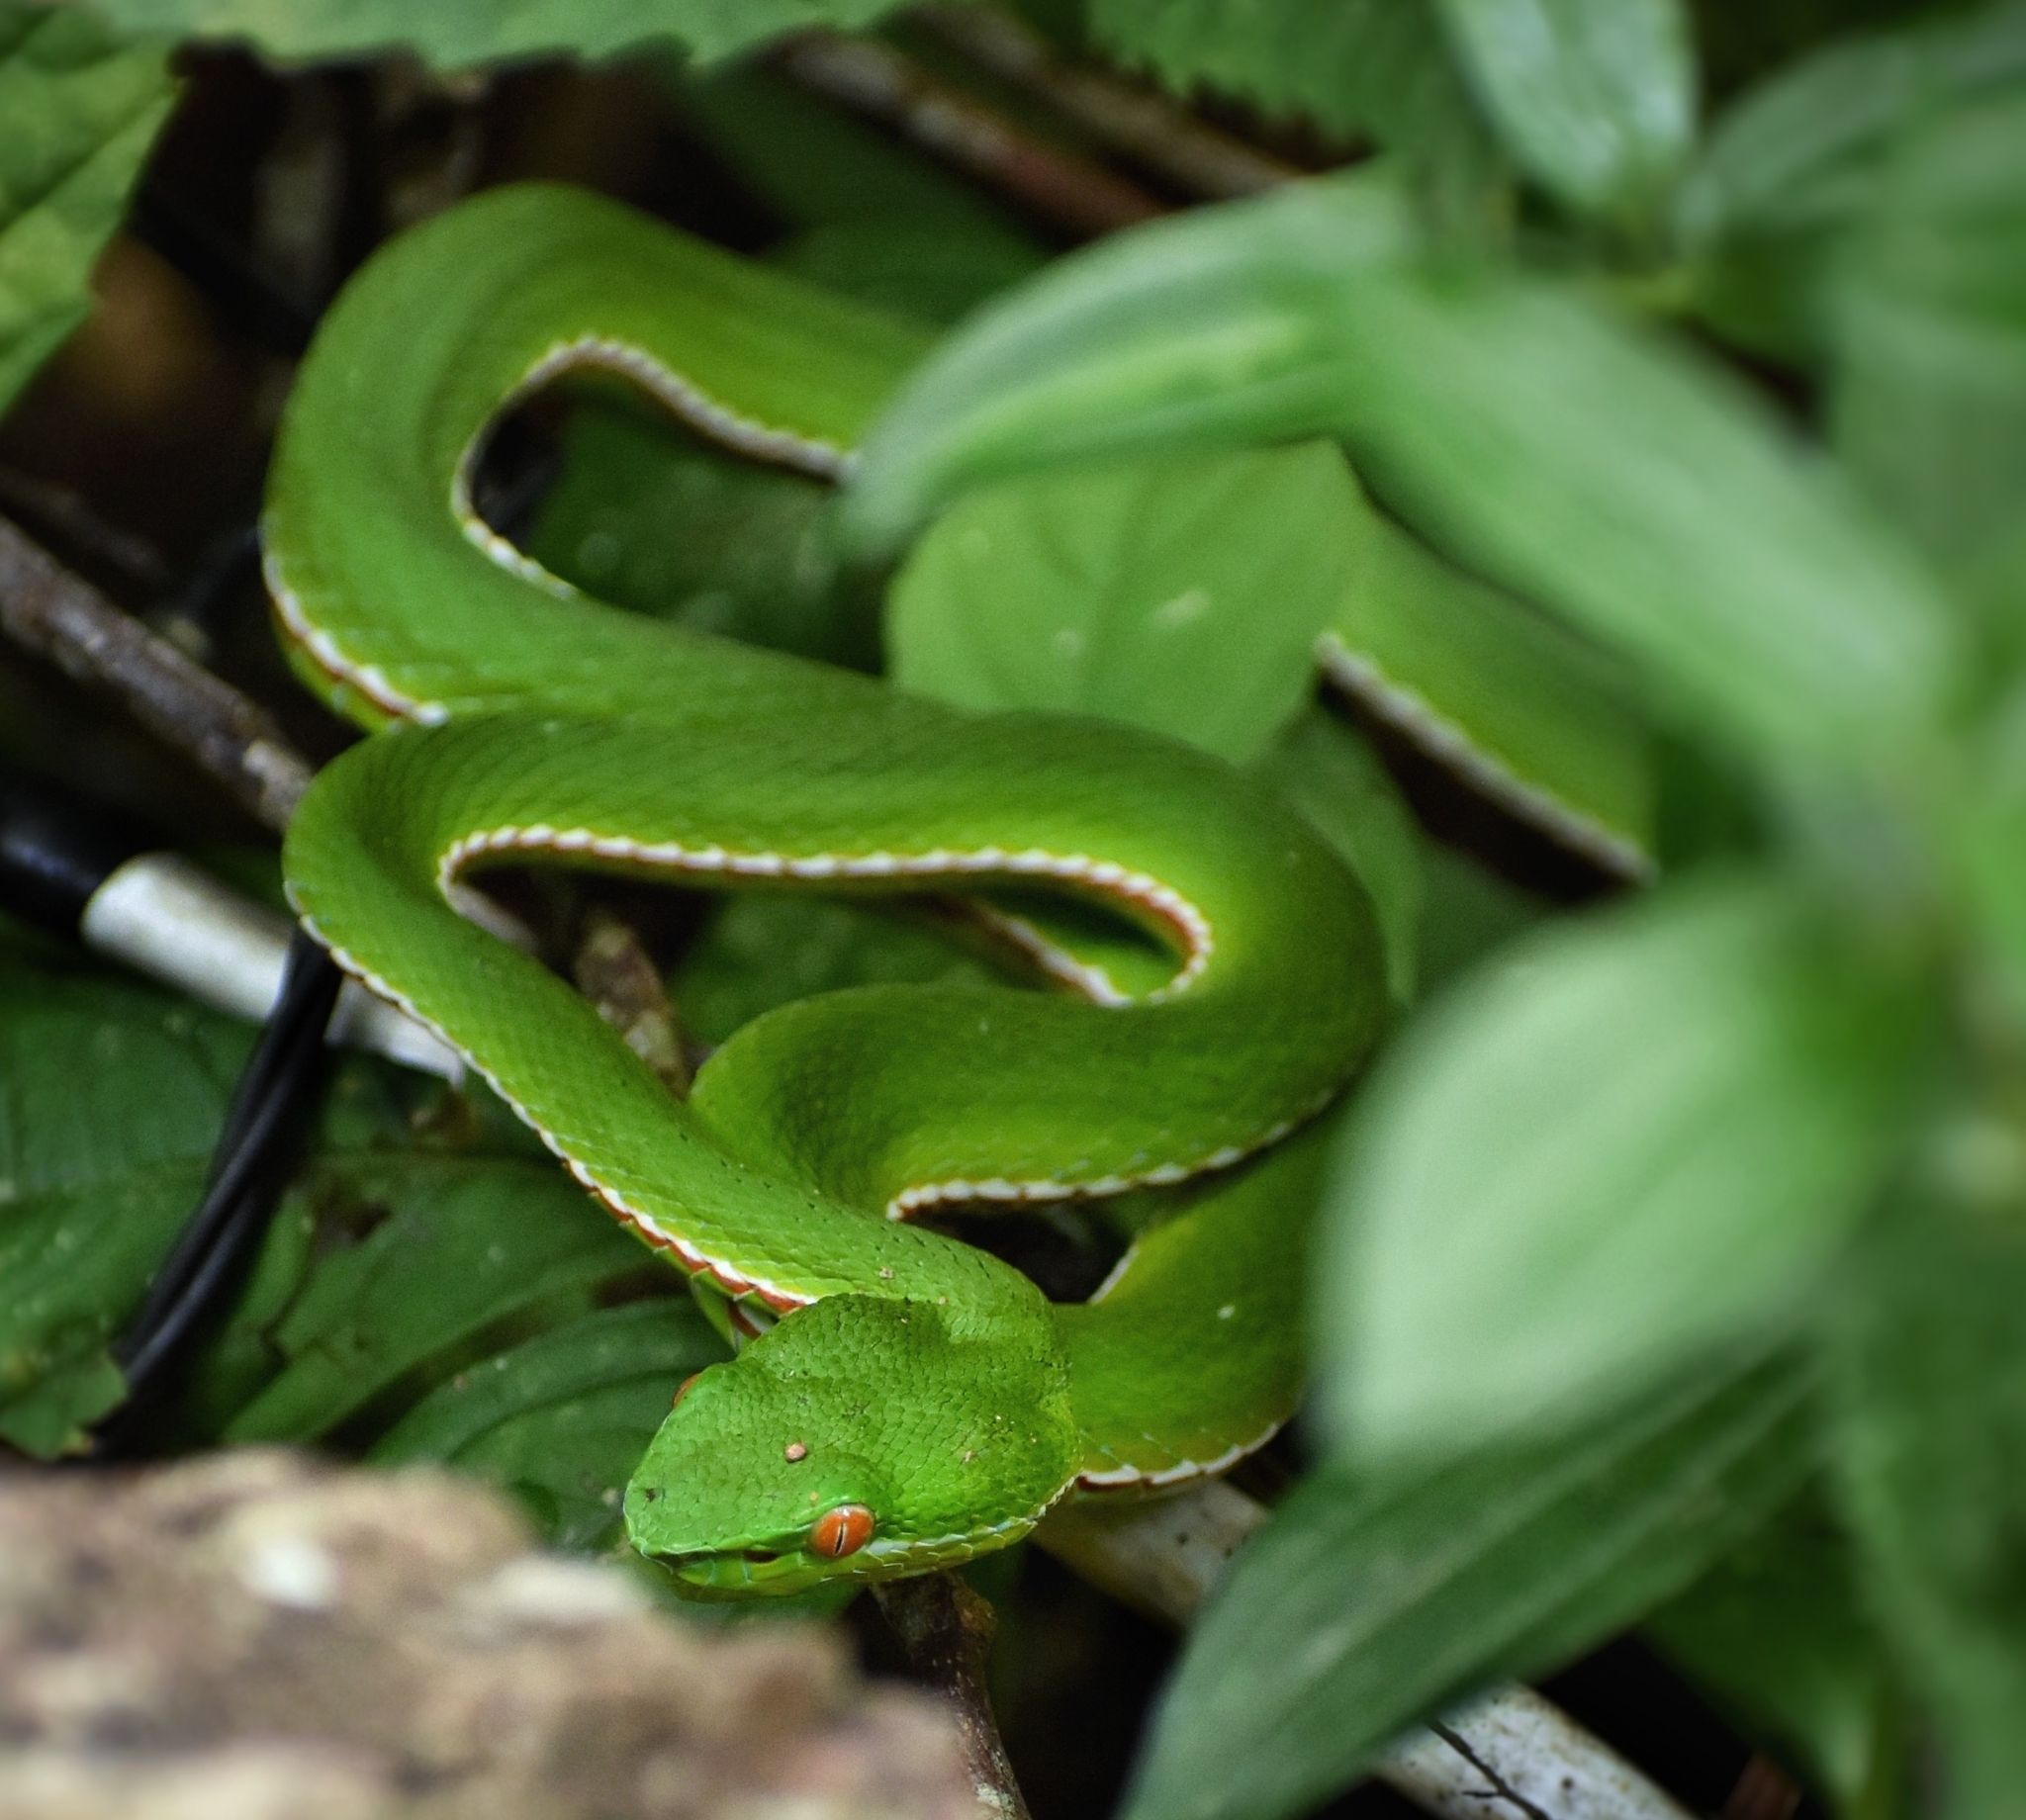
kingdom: Animalia
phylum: Chordata
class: Squamata
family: Viperidae
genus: Trimeresurus
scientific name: Trimeresurus stejnegeri
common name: Chen’s bamboo pit viper
